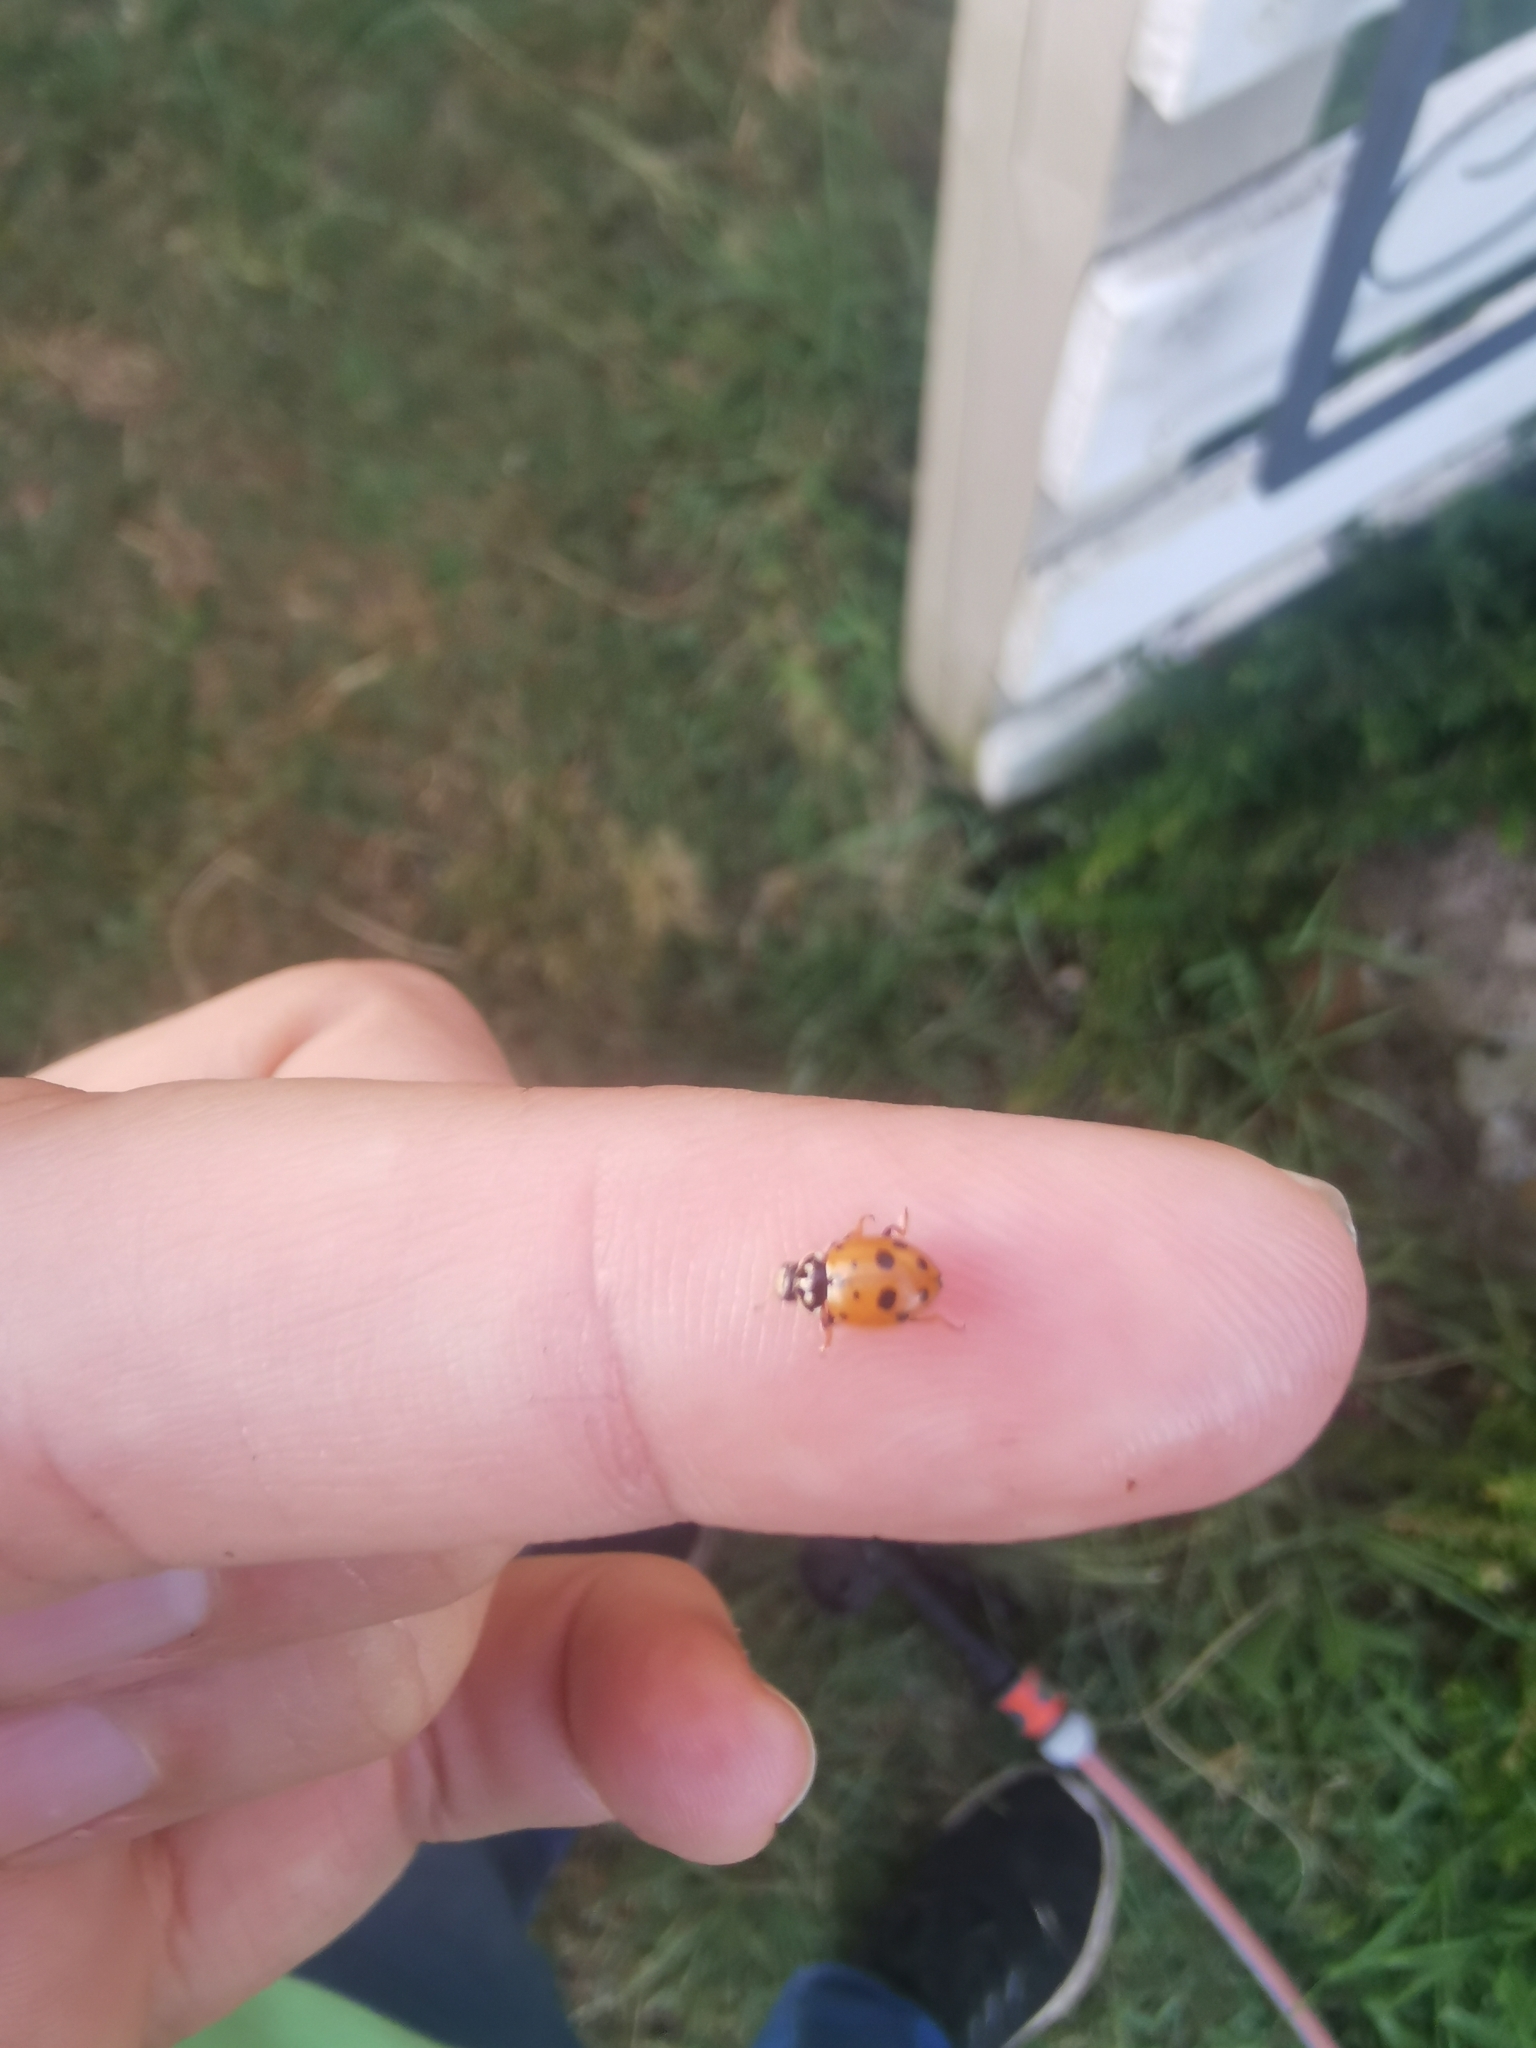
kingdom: Animalia
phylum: Arthropoda
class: Insecta
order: Coleoptera
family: Coccinellidae
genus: Hippodamia
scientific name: Hippodamia variegata
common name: Ladybird beetle
